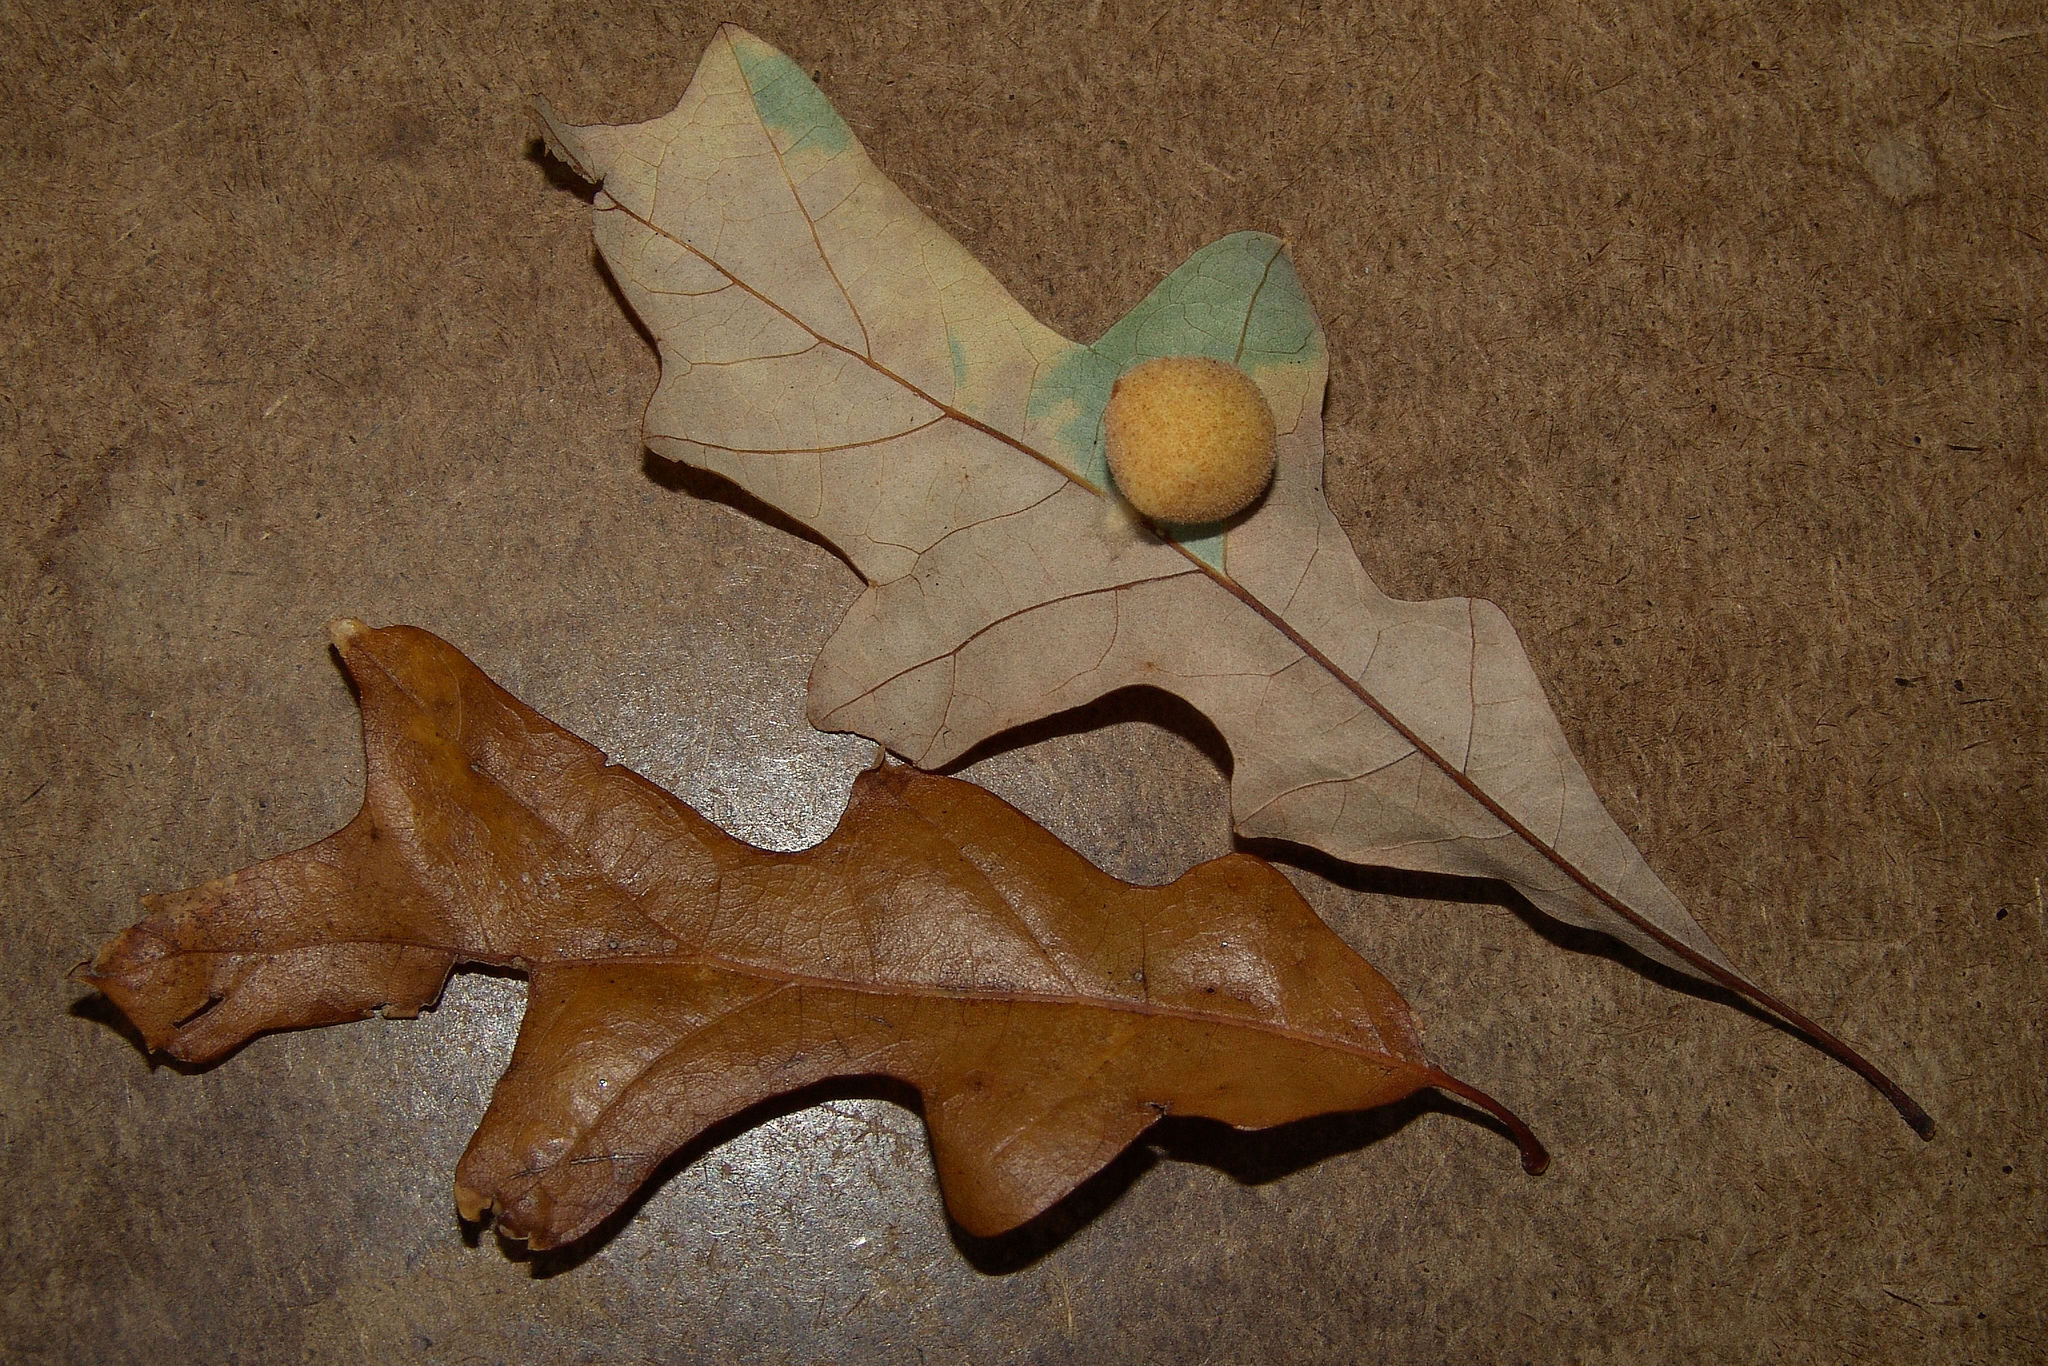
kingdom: Animalia
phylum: Arthropoda
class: Insecta
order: Hymenoptera
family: Cynipidae
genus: Philonix
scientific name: Philonix gigas
